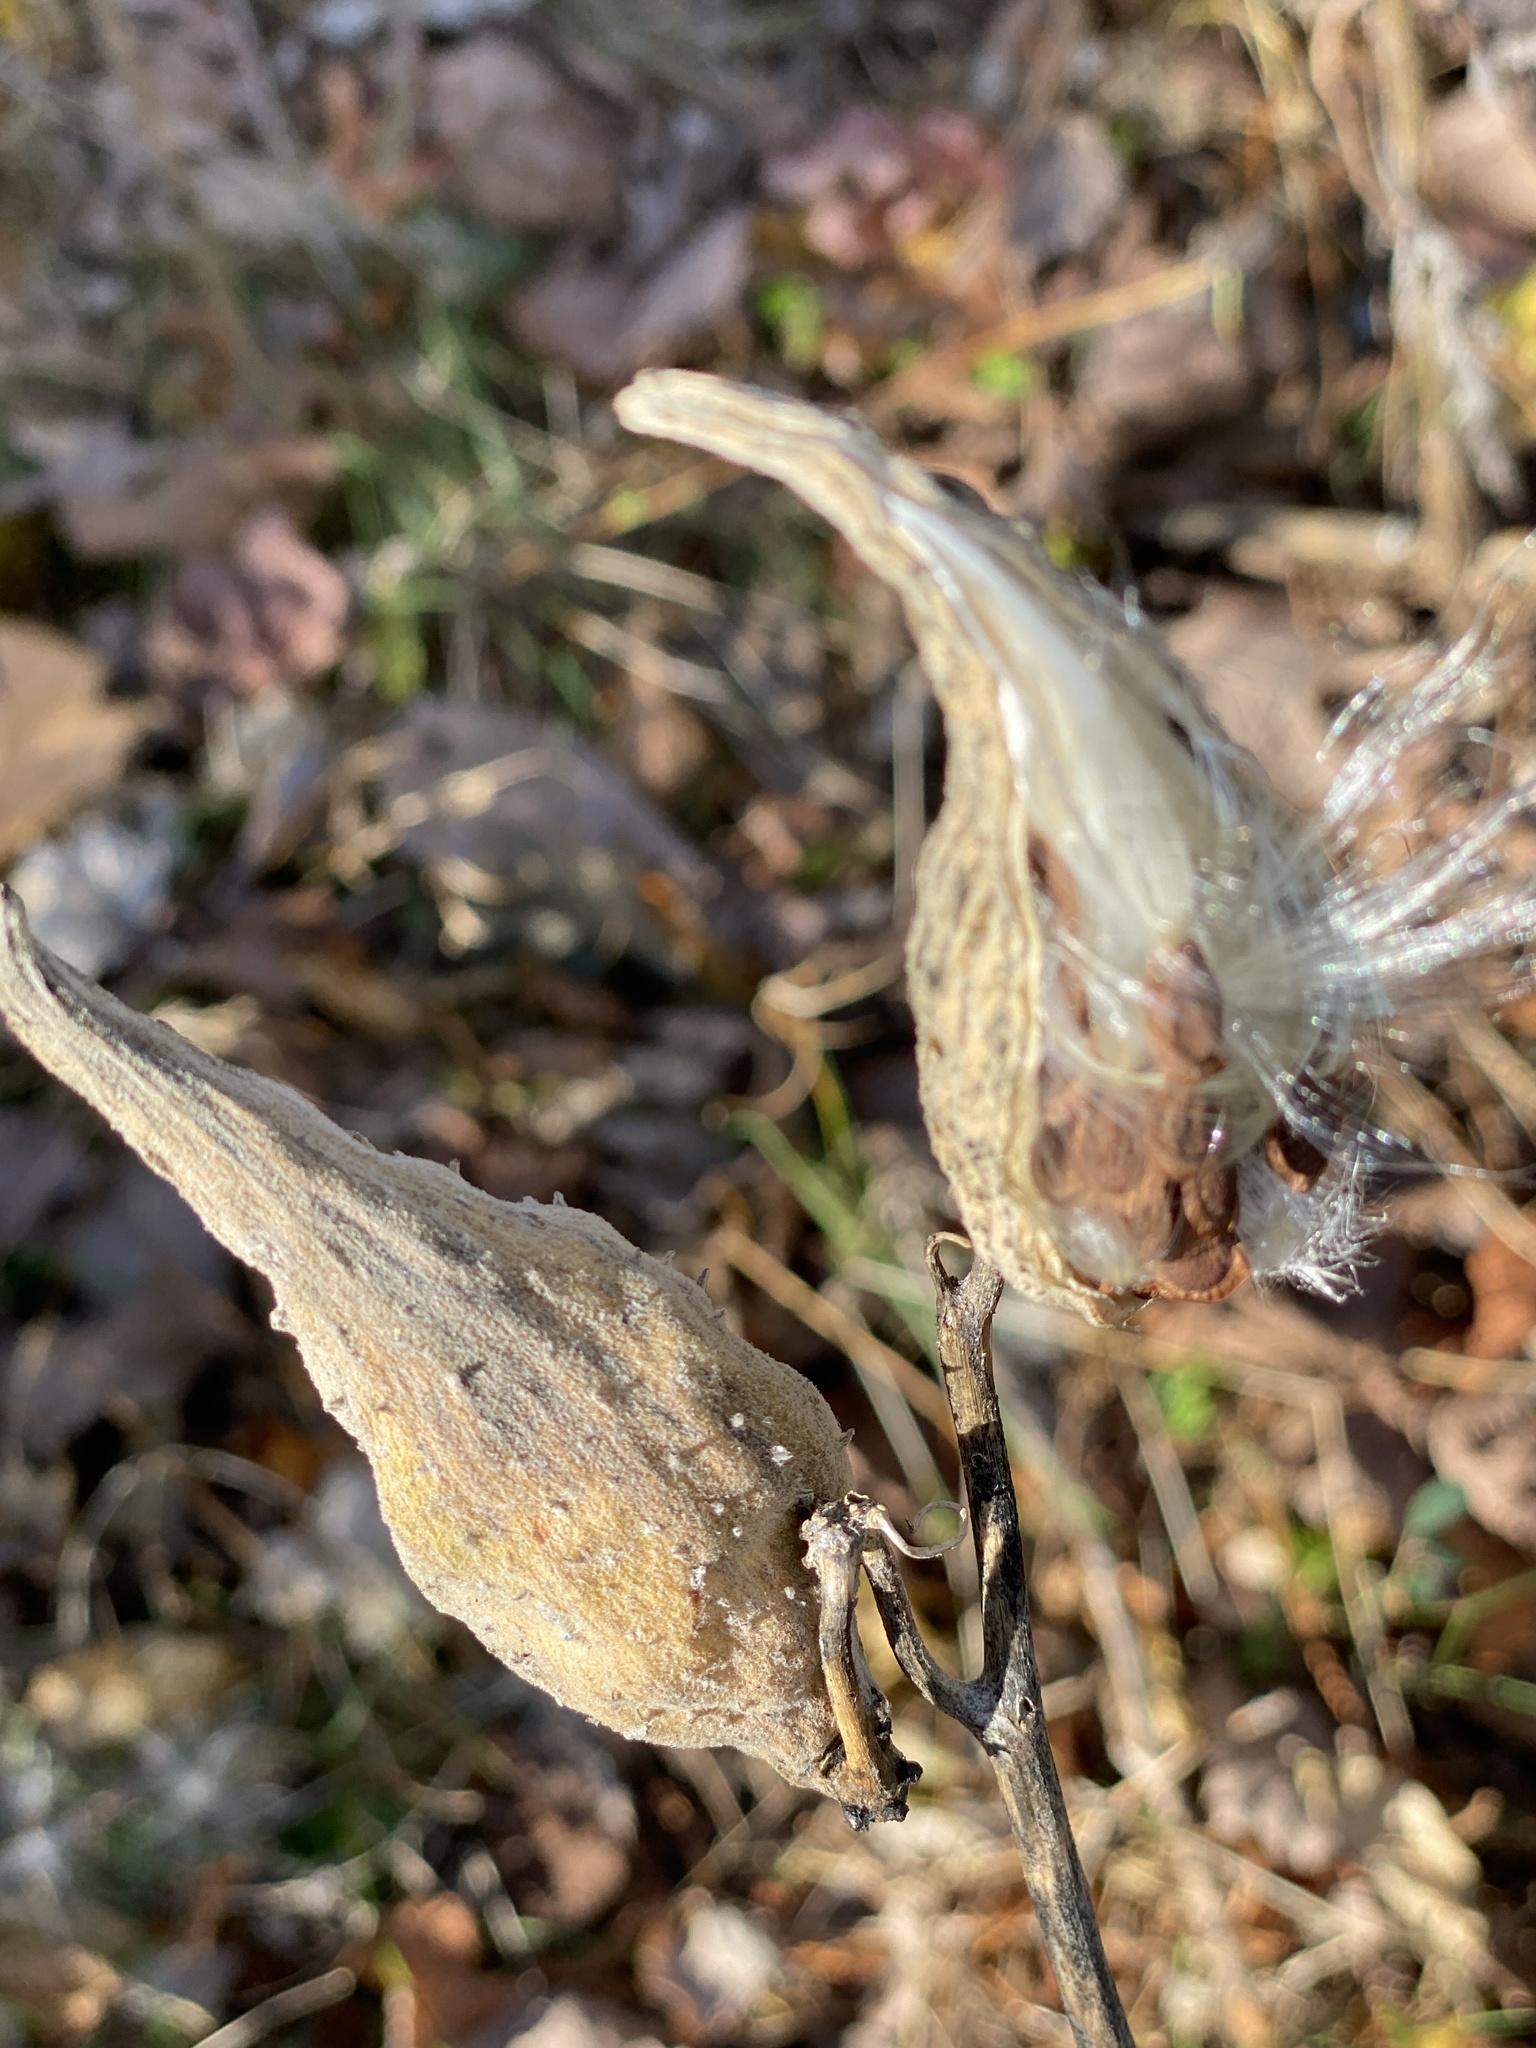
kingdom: Plantae
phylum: Tracheophyta
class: Magnoliopsida
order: Gentianales
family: Apocynaceae
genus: Asclepias
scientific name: Asclepias syriaca
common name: Common milkweed
